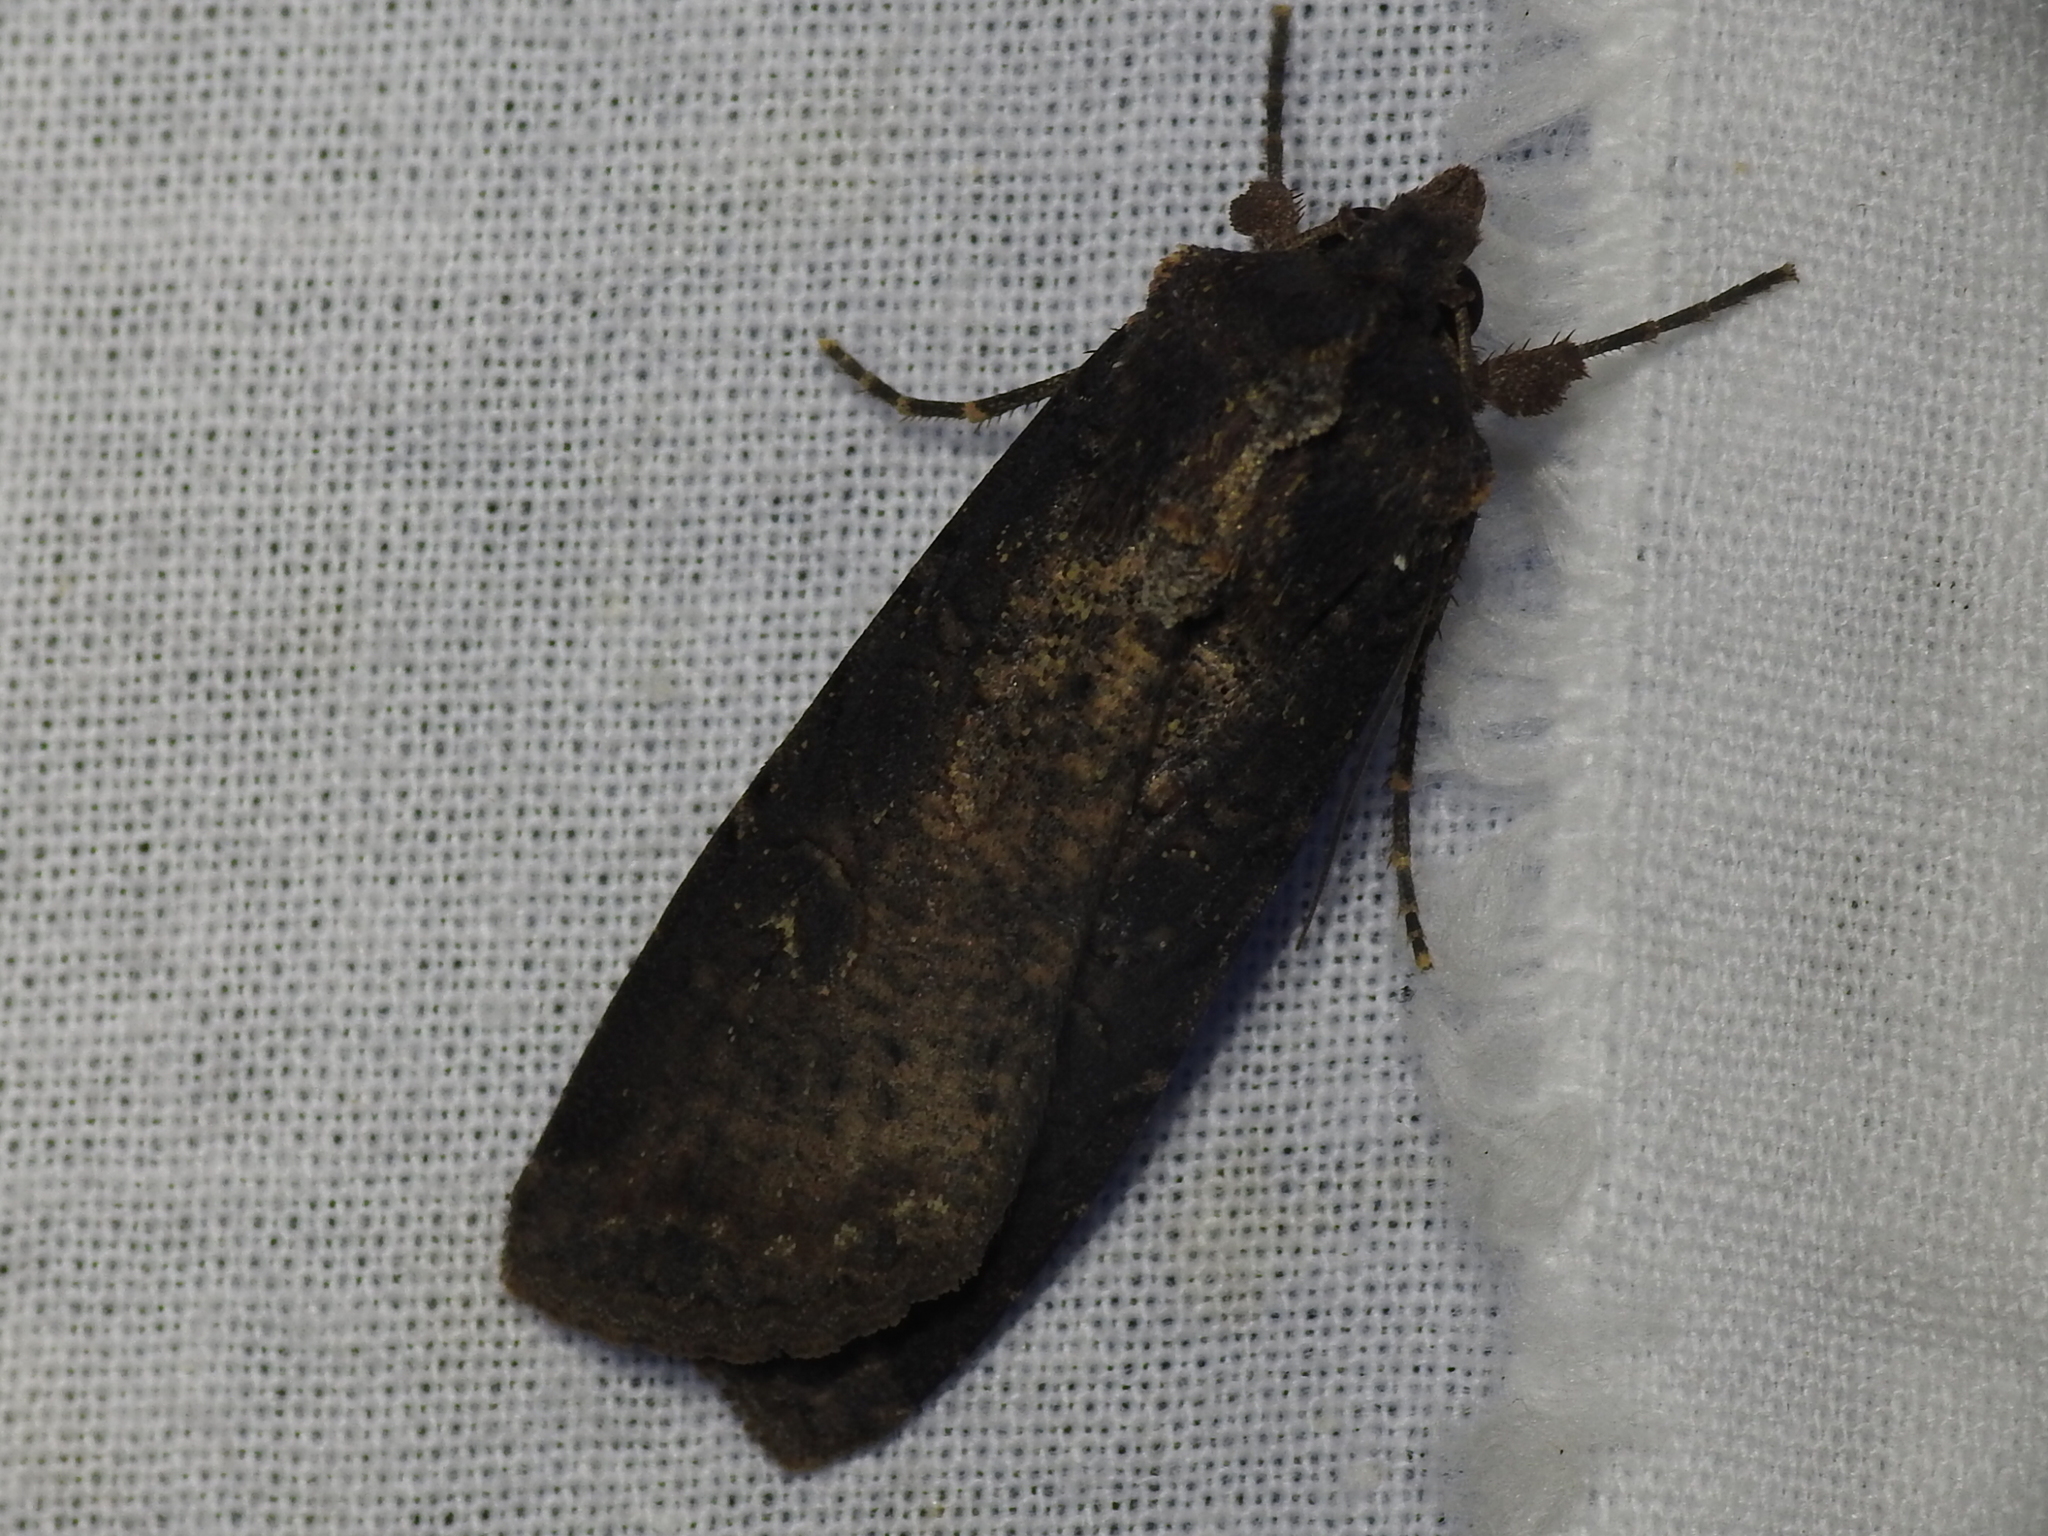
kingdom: Animalia
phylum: Arthropoda
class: Insecta
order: Lepidoptera
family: Noctuidae
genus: Peridroma
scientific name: Peridroma saucia
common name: Pearly underwing
